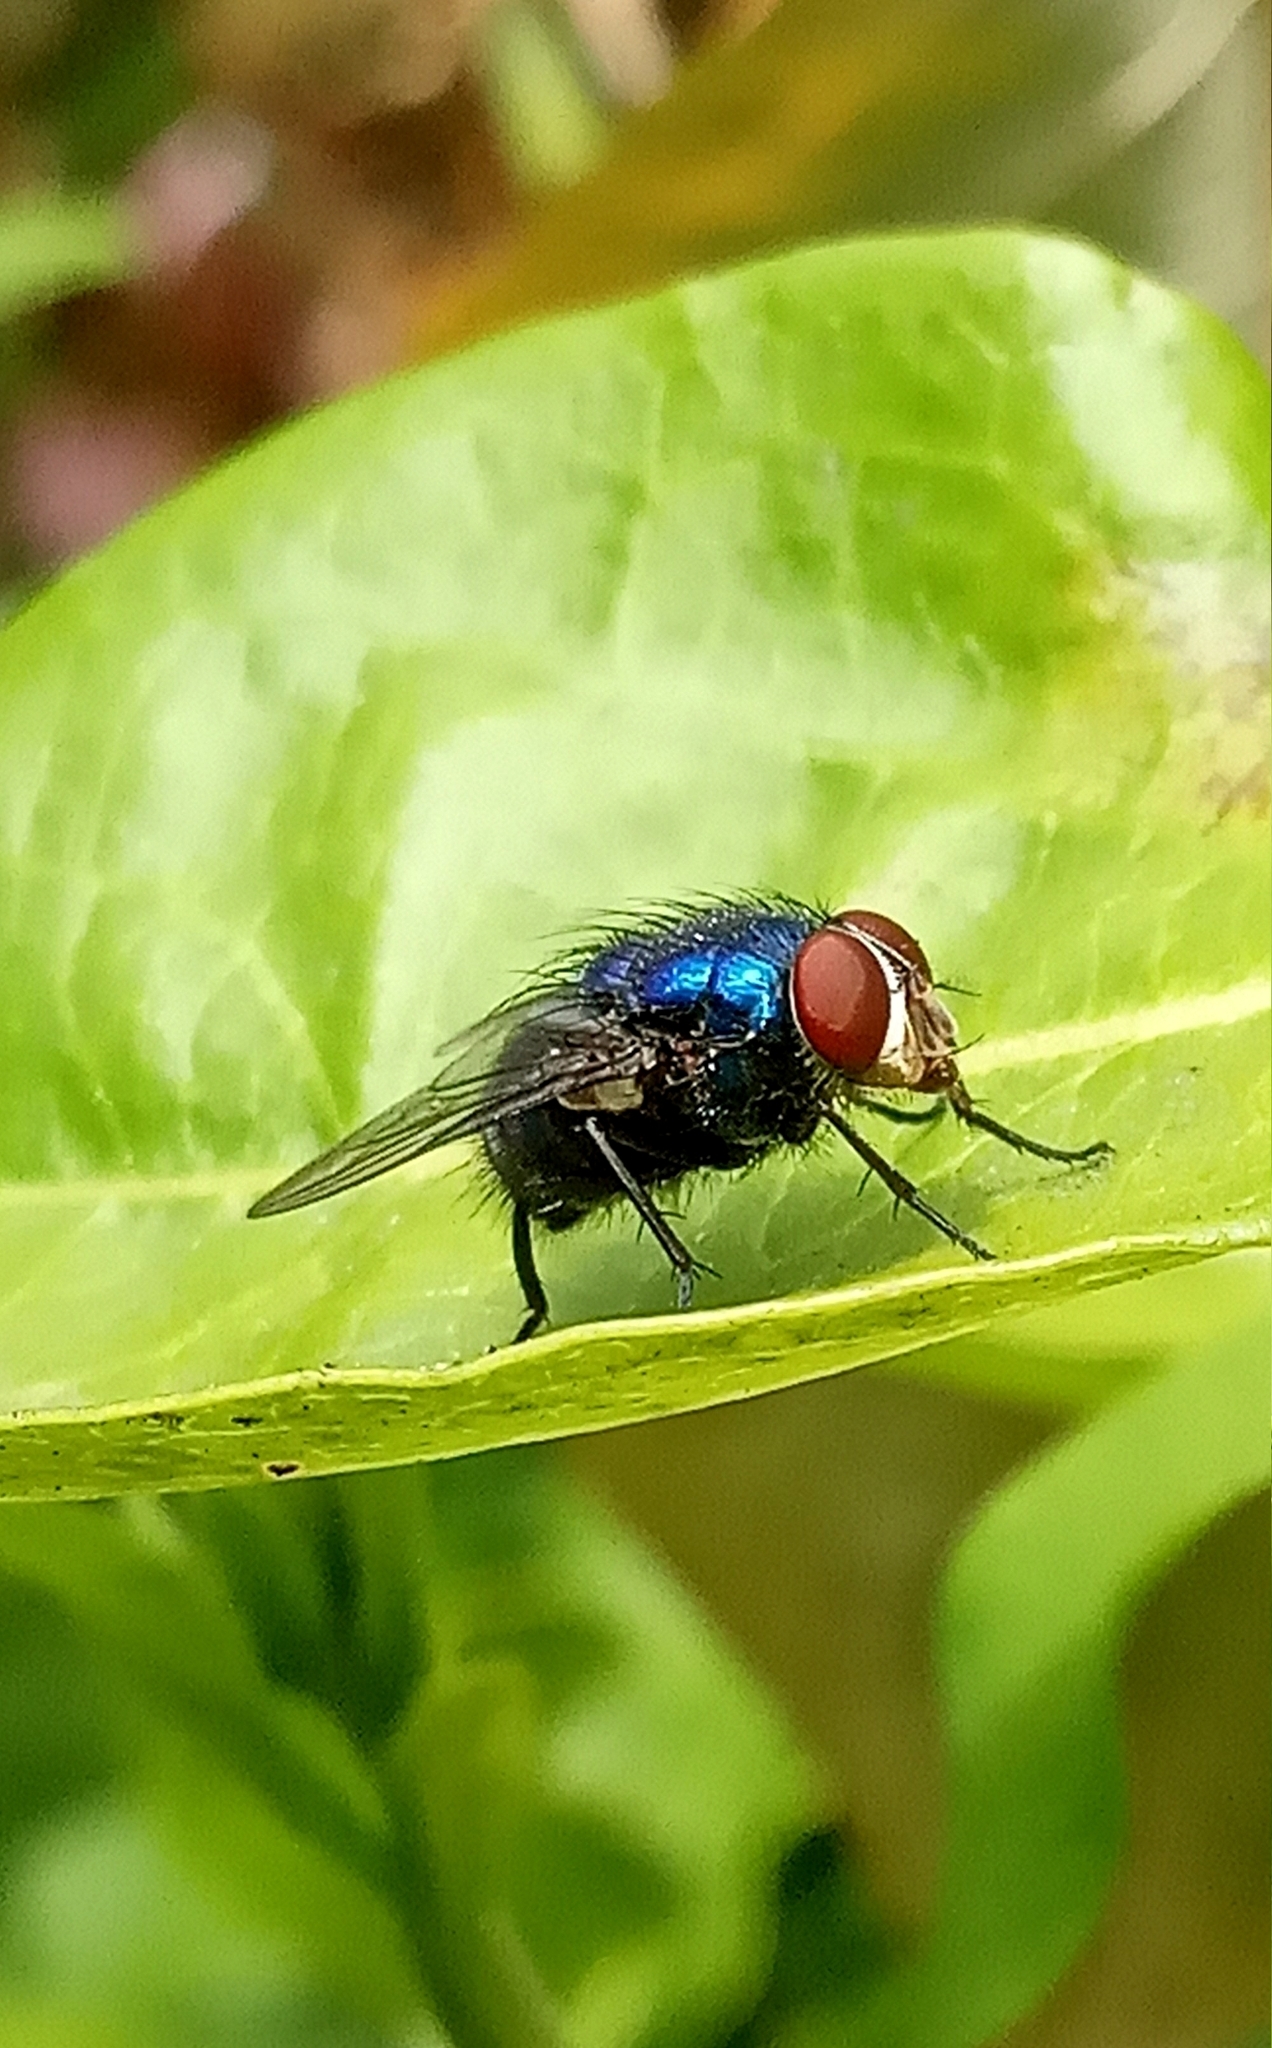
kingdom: Animalia
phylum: Arthropoda
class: Insecta
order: Diptera
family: Calliphoridae
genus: Lucilia
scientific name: Lucilia eximia
